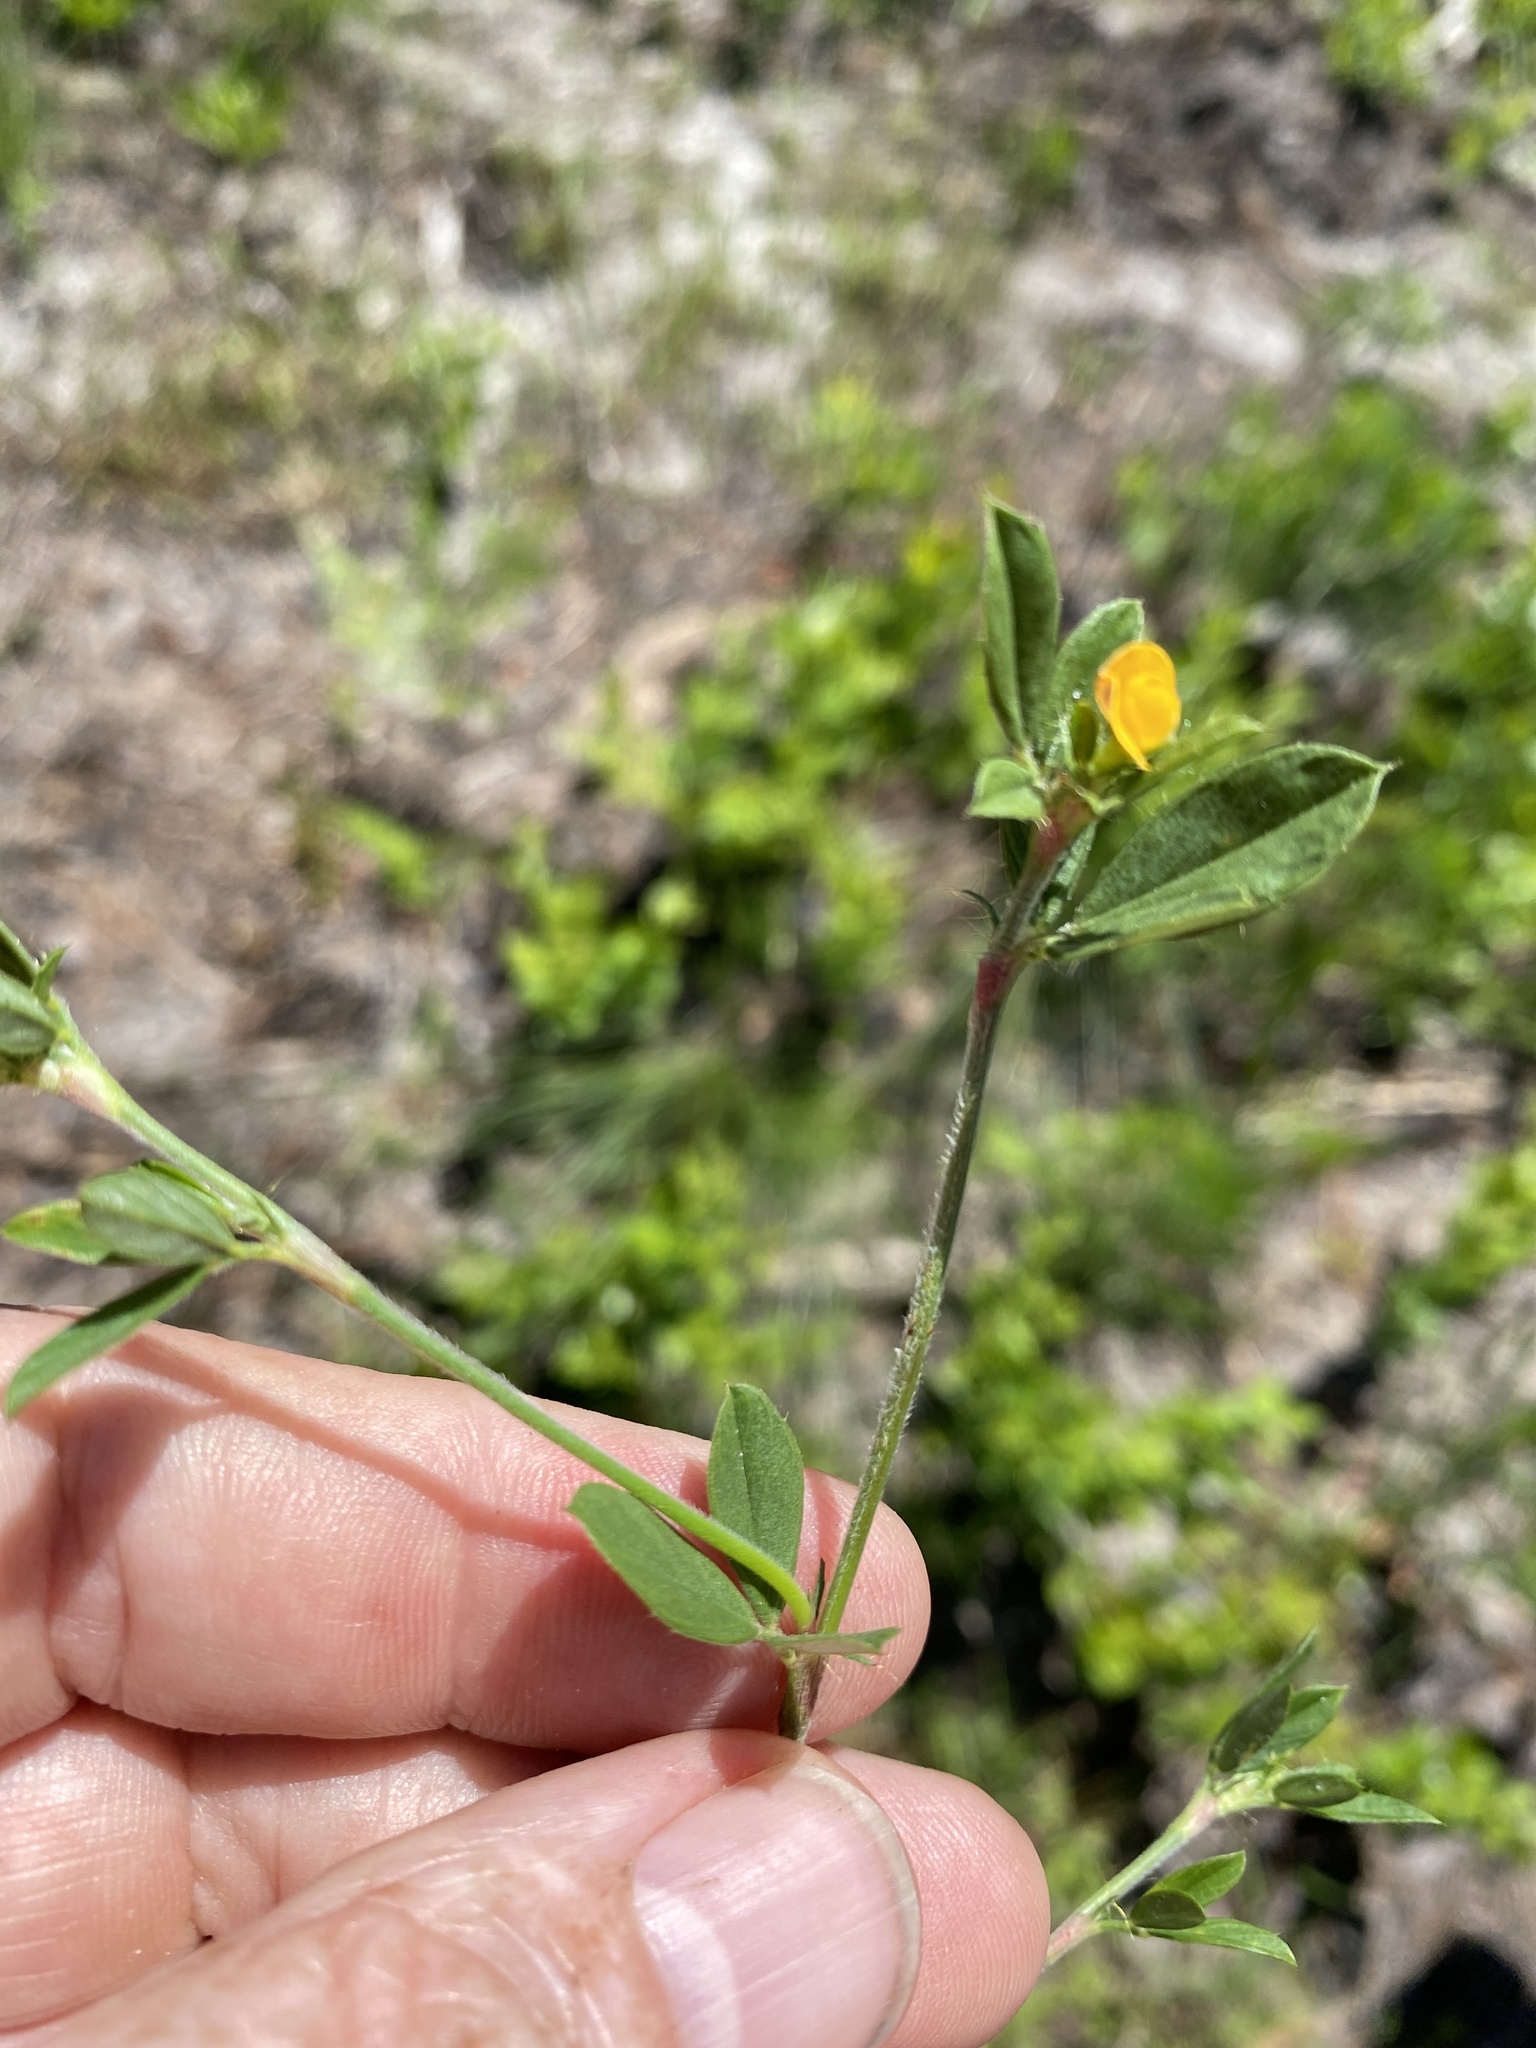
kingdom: Plantae
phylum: Tracheophyta
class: Magnoliopsida
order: Fabales
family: Fabaceae
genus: Stylosanthes
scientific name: Stylosanthes biflora
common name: Two-flower pencil-flower
